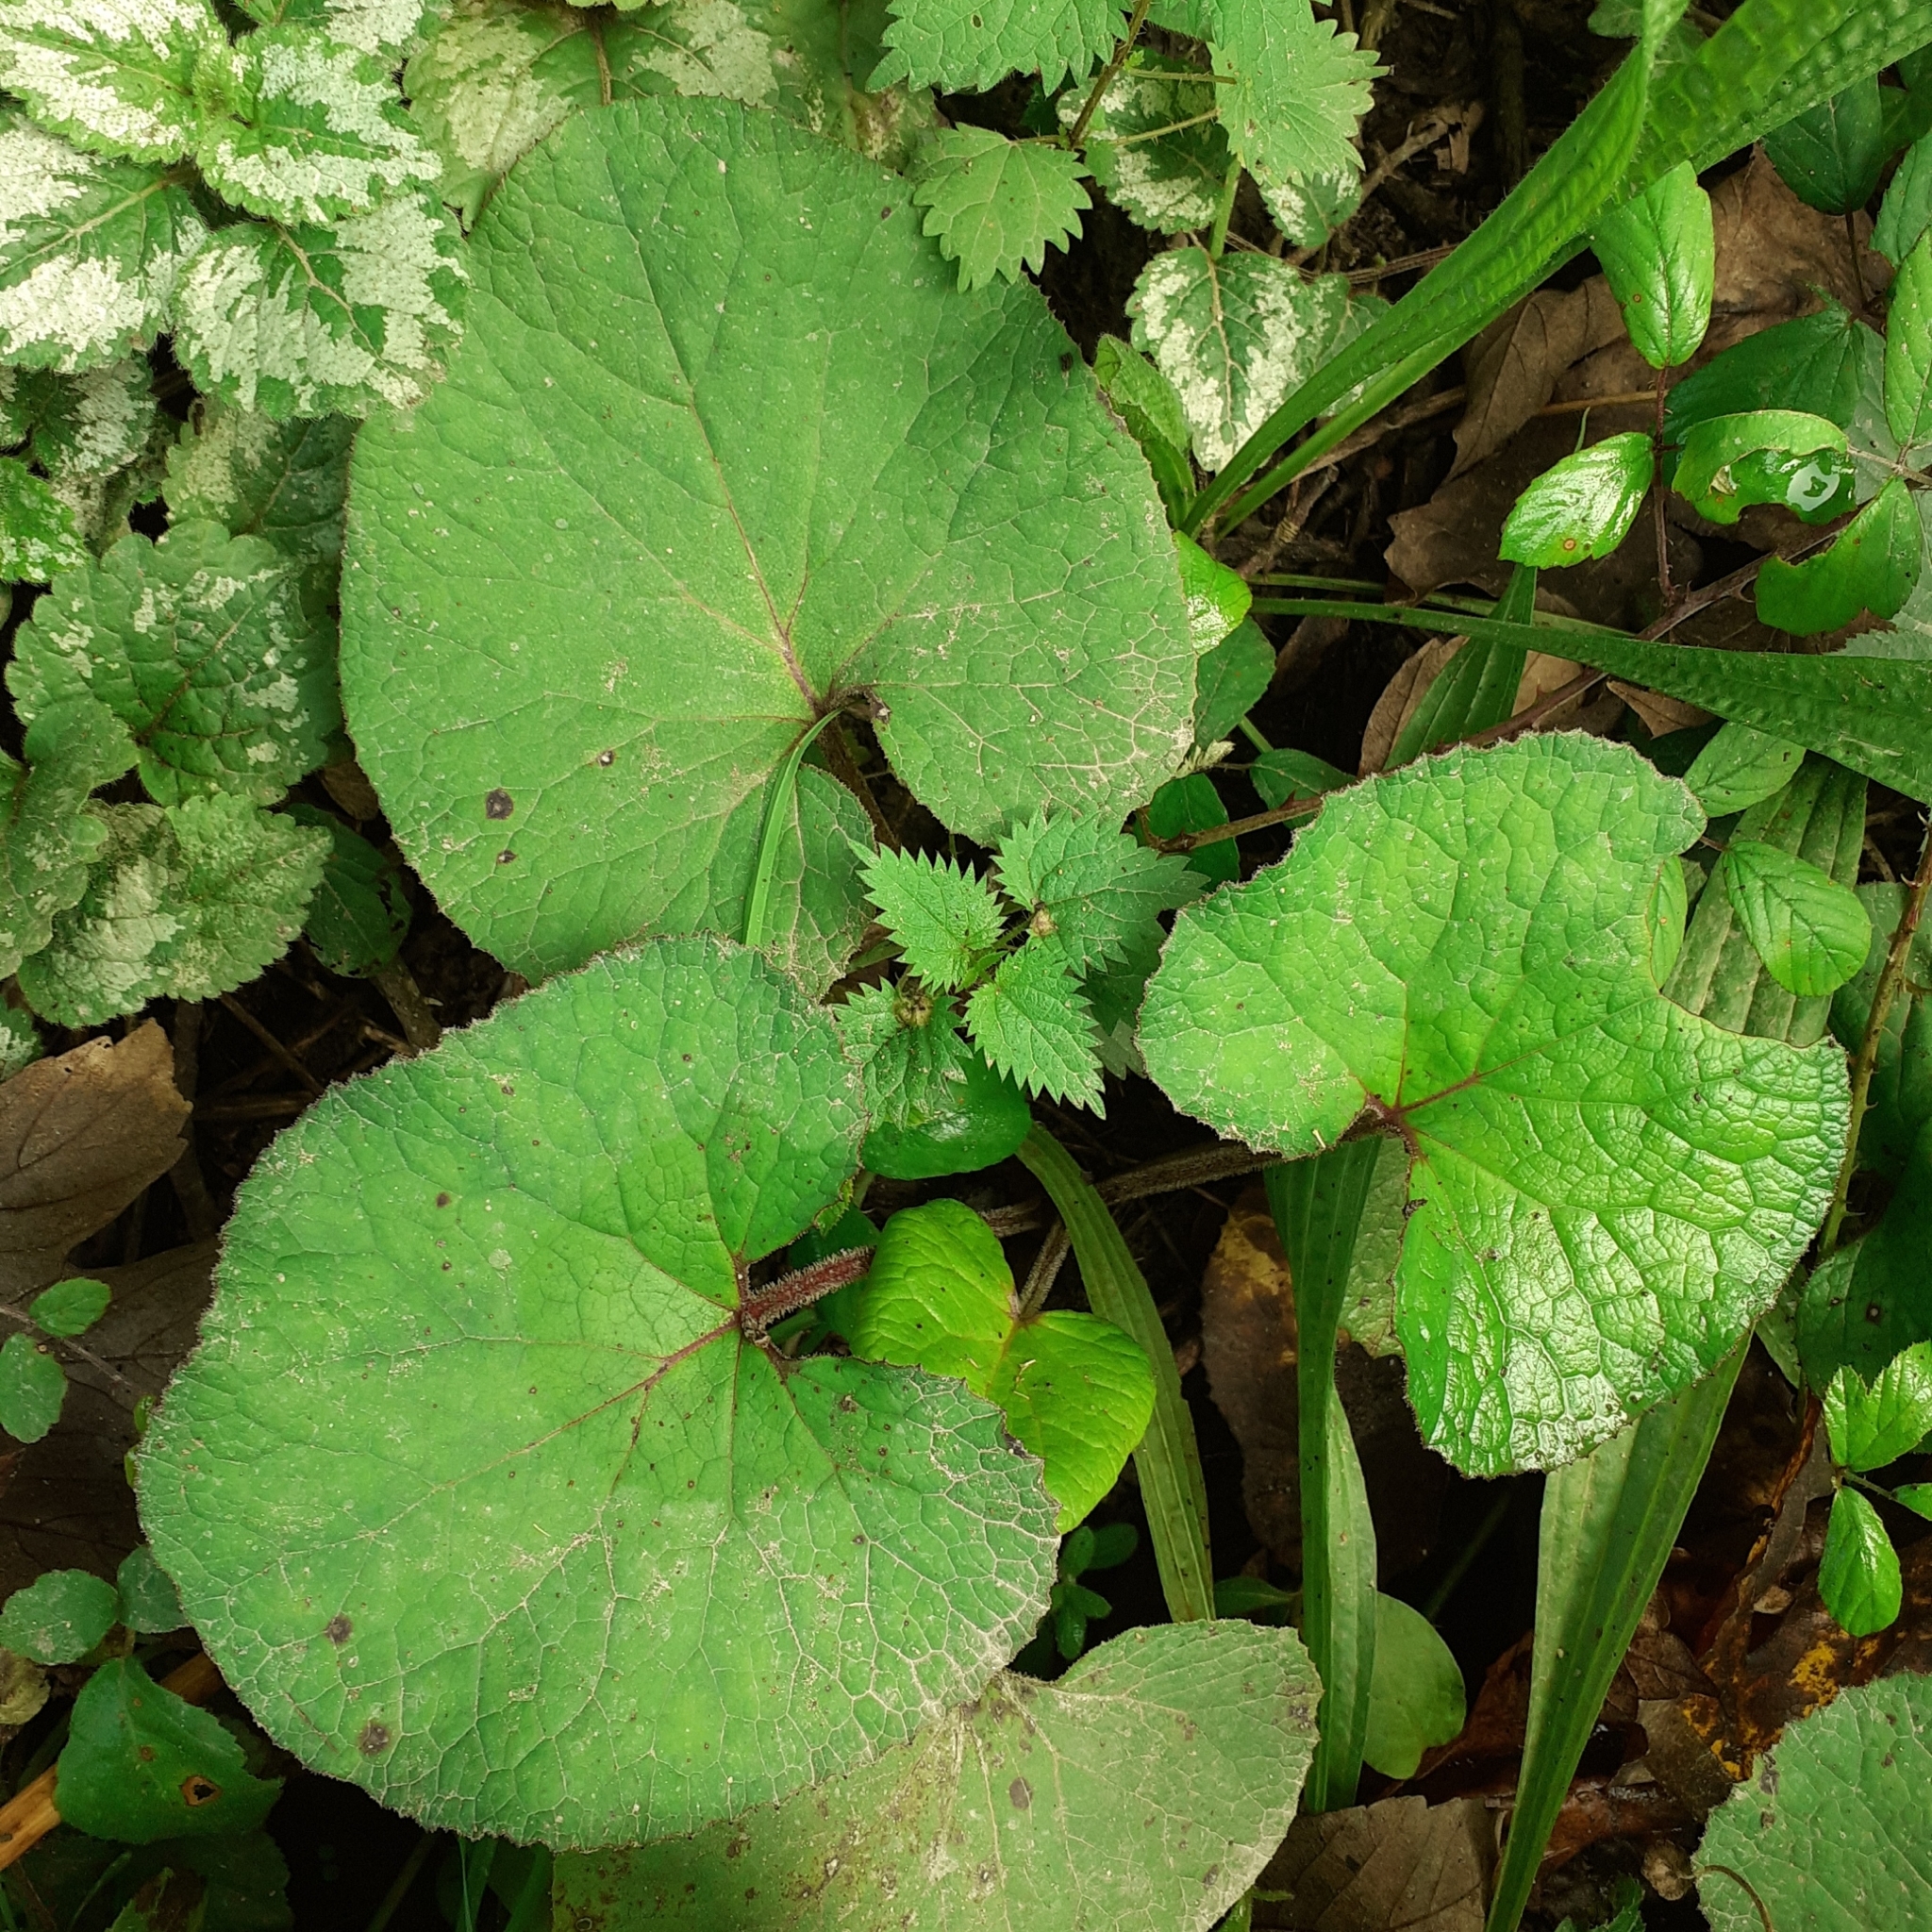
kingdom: Plantae
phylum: Tracheophyta
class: Magnoliopsida
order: Asterales
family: Asteraceae
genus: Petasites
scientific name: Petasites pyrenaicus
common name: Winter heliotrope
